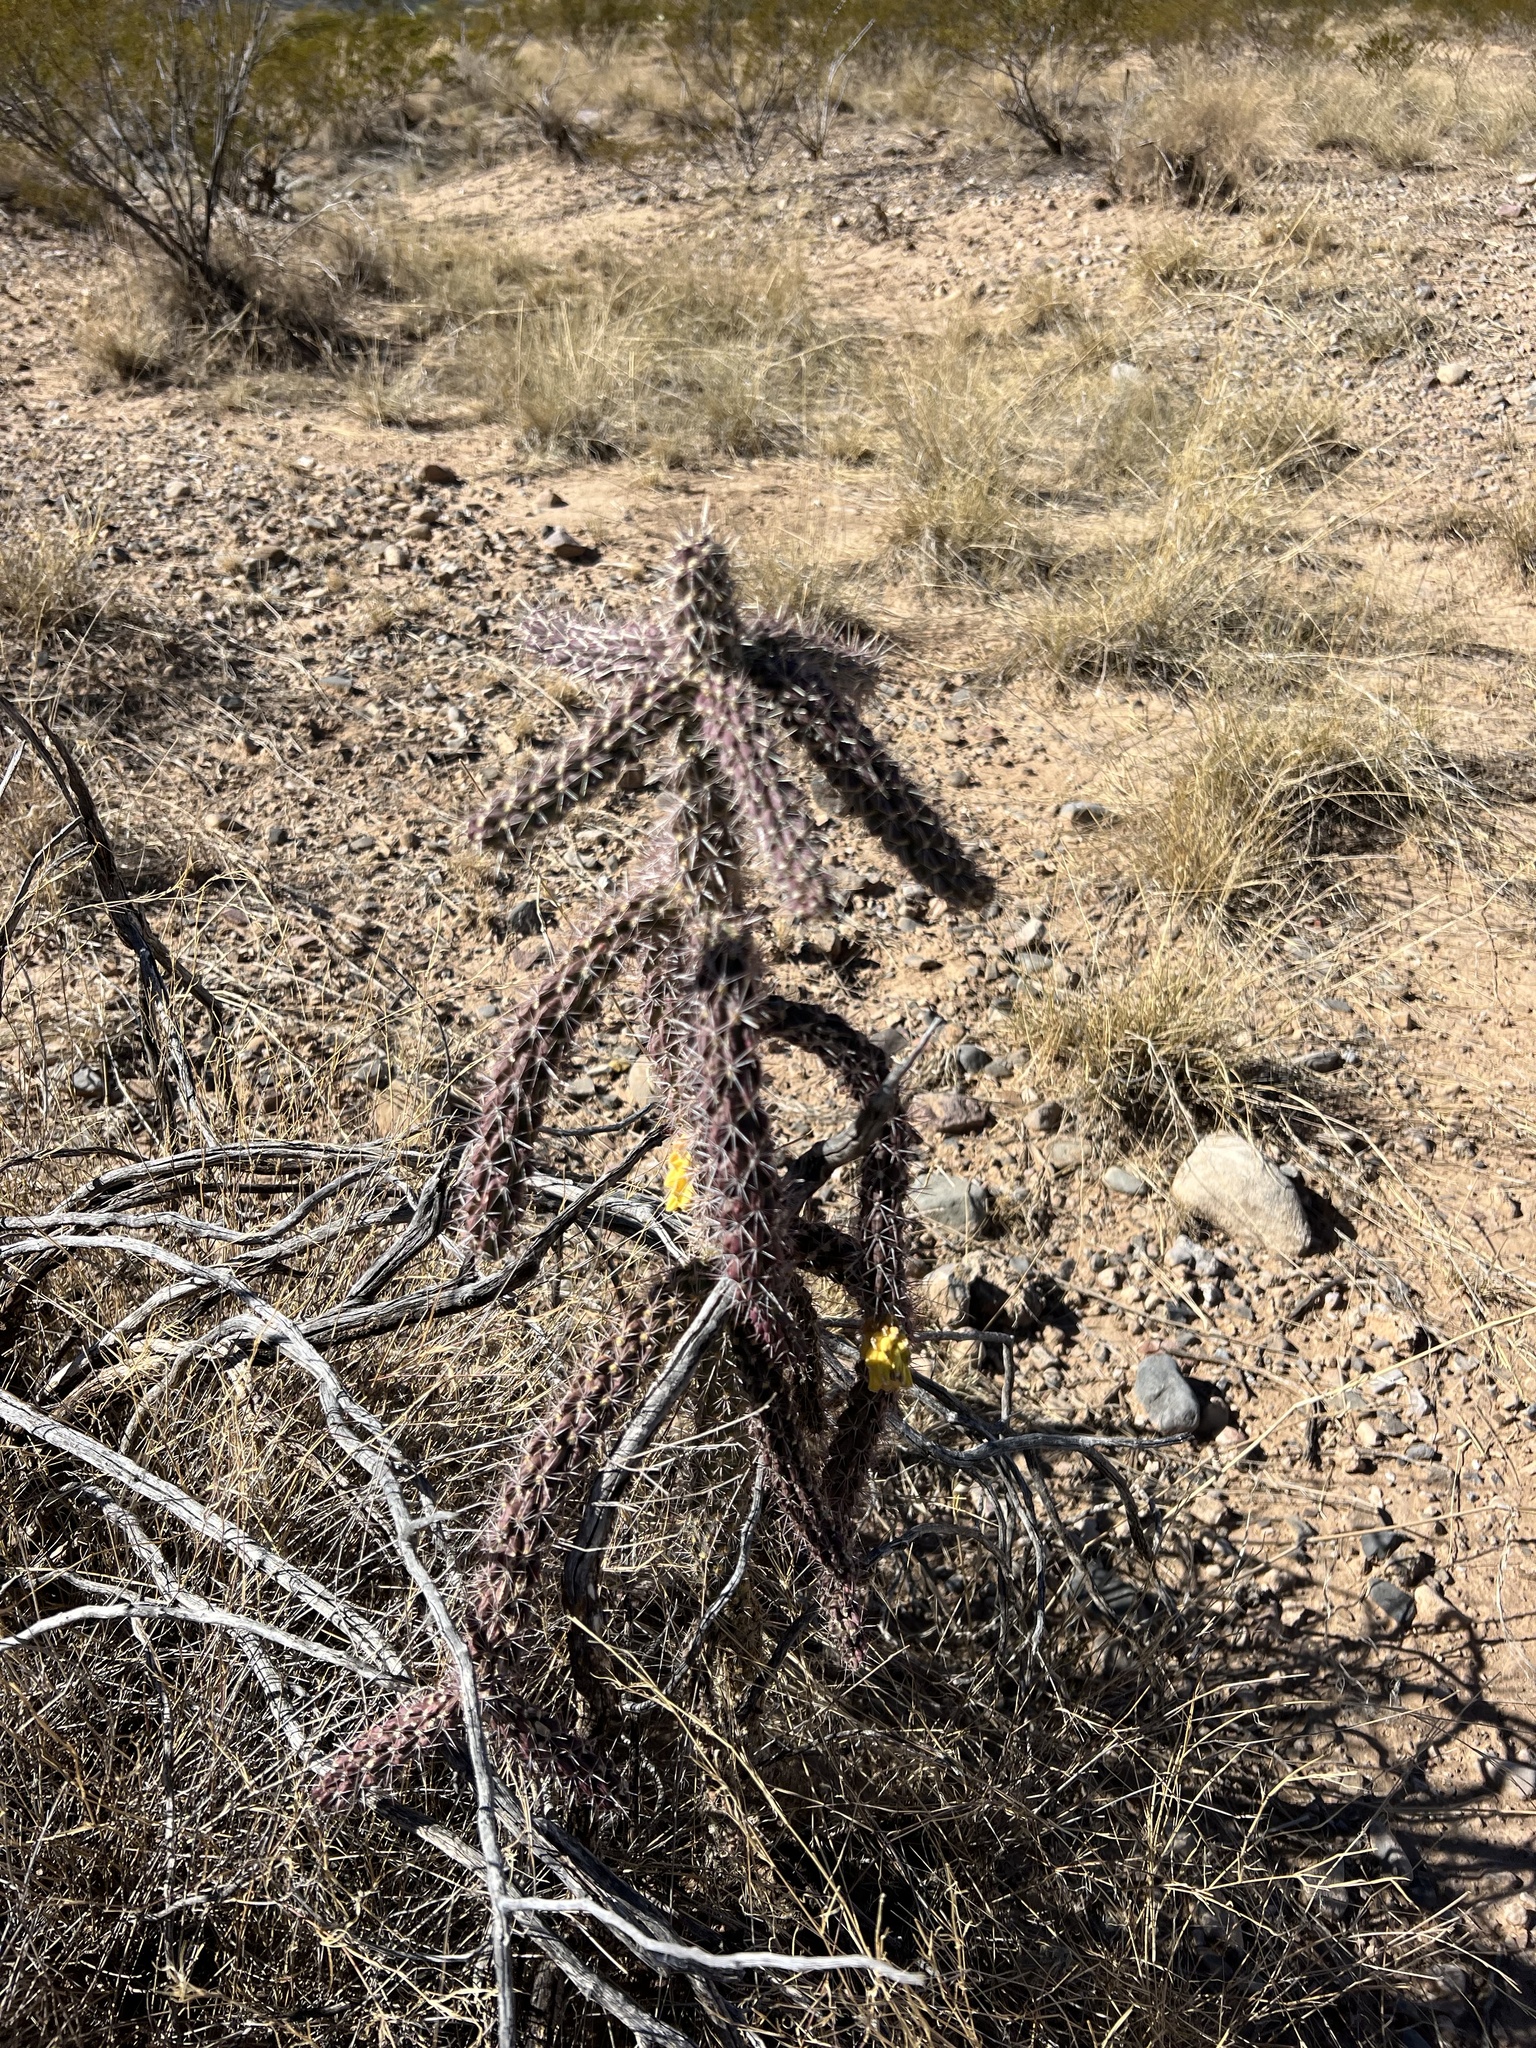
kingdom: Plantae
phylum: Tracheophyta
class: Magnoliopsida
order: Caryophyllales
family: Cactaceae
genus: Cylindropuntia
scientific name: Cylindropuntia imbricata
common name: Candelabrum cactus
